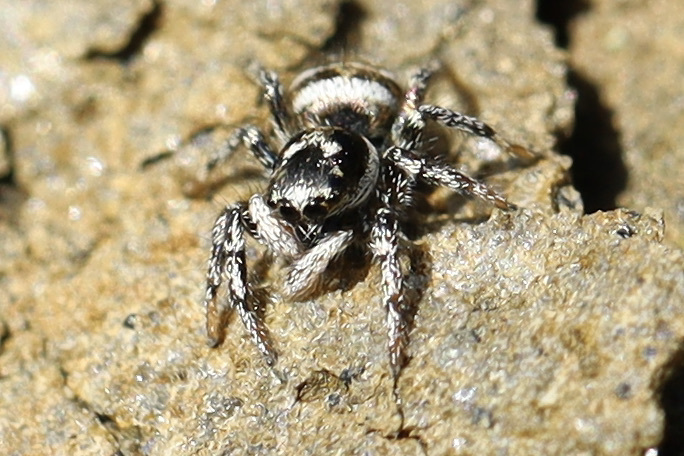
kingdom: Animalia
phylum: Arthropoda
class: Arachnida
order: Araneae
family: Salticidae
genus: Salticus
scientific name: Salticus scenicus
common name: Zebra jumper
